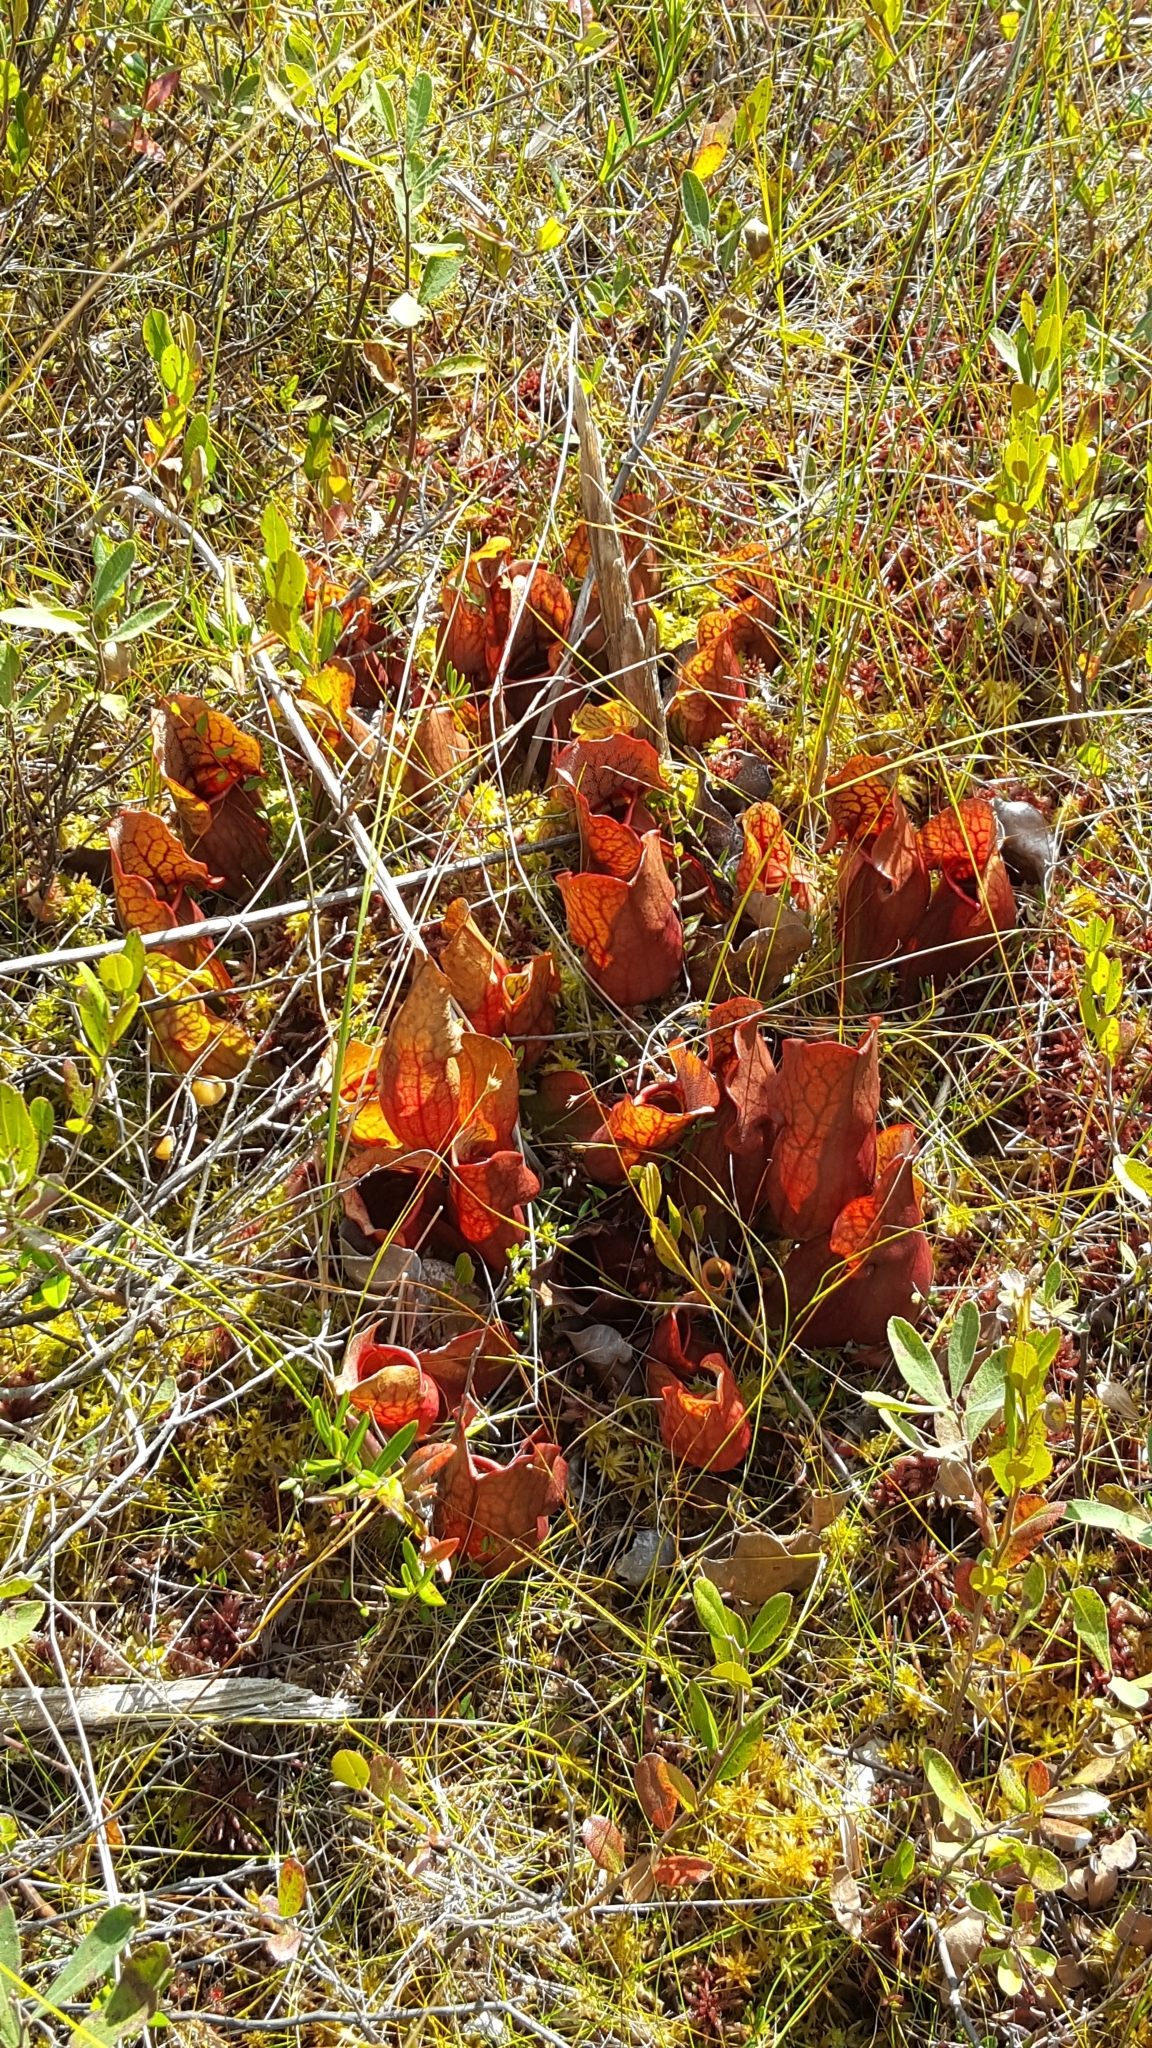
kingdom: Plantae
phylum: Tracheophyta
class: Magnoliopsida
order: Ericales
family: Sarraceniaceae
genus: Sarracenia
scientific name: Sarracenia purpurea
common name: Pitcherplant
